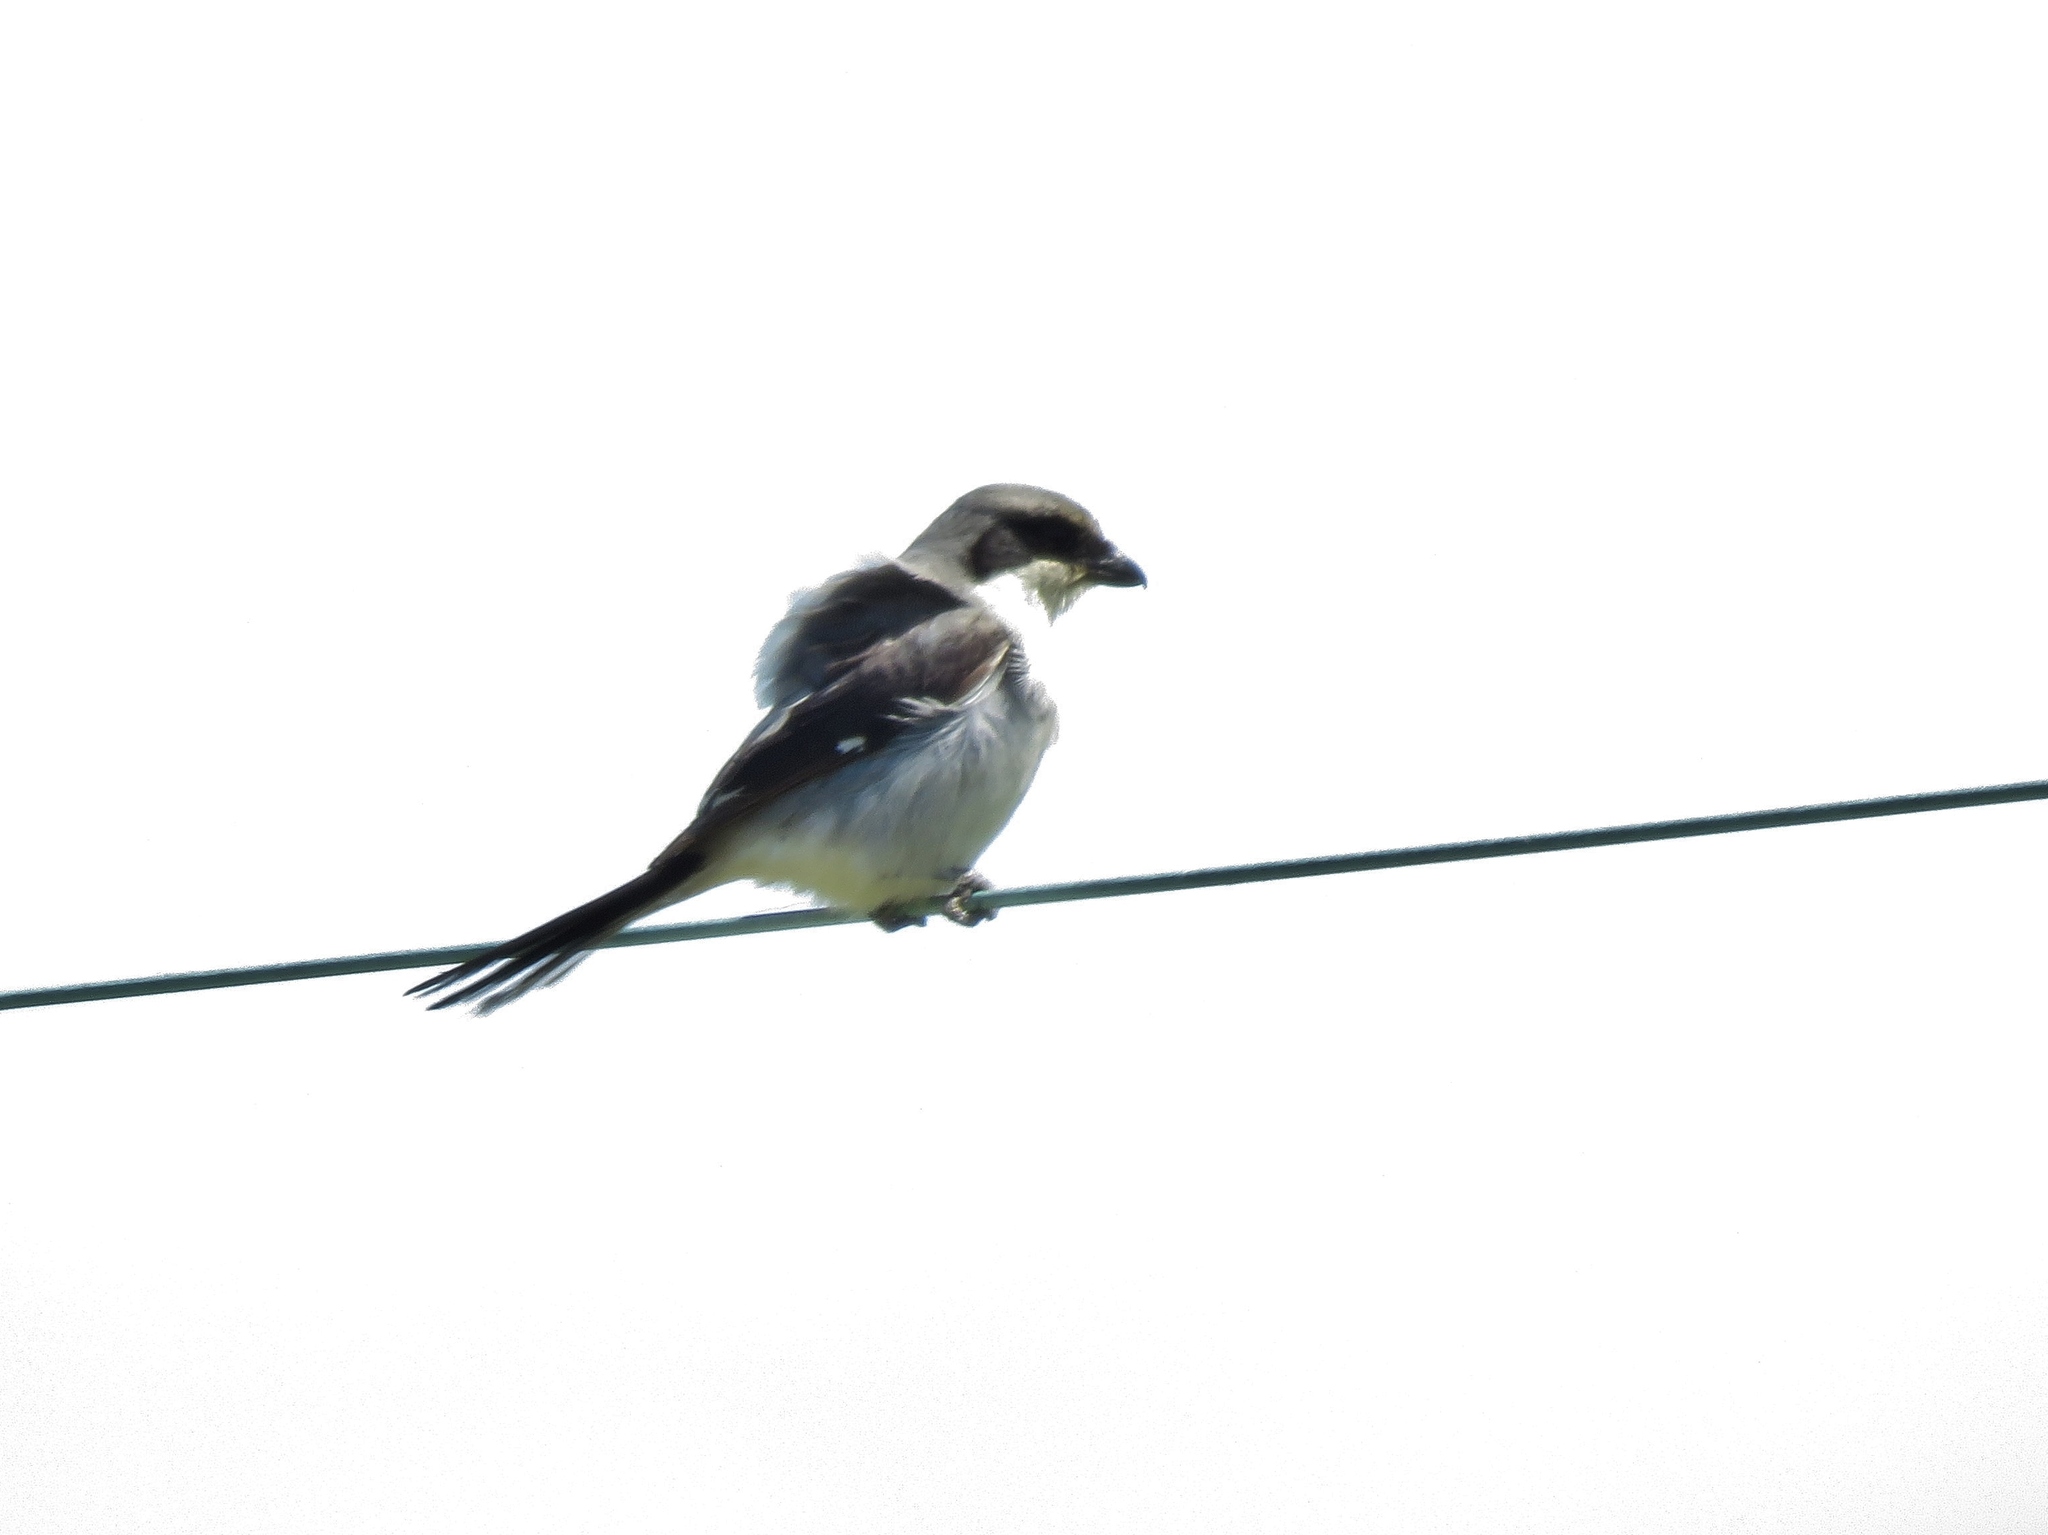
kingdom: Animalia
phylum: Chordata
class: Aves
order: Passeriformes
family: Laniidae
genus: Lanius
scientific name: Lanius ludovicianus
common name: Loggerhead shrike
